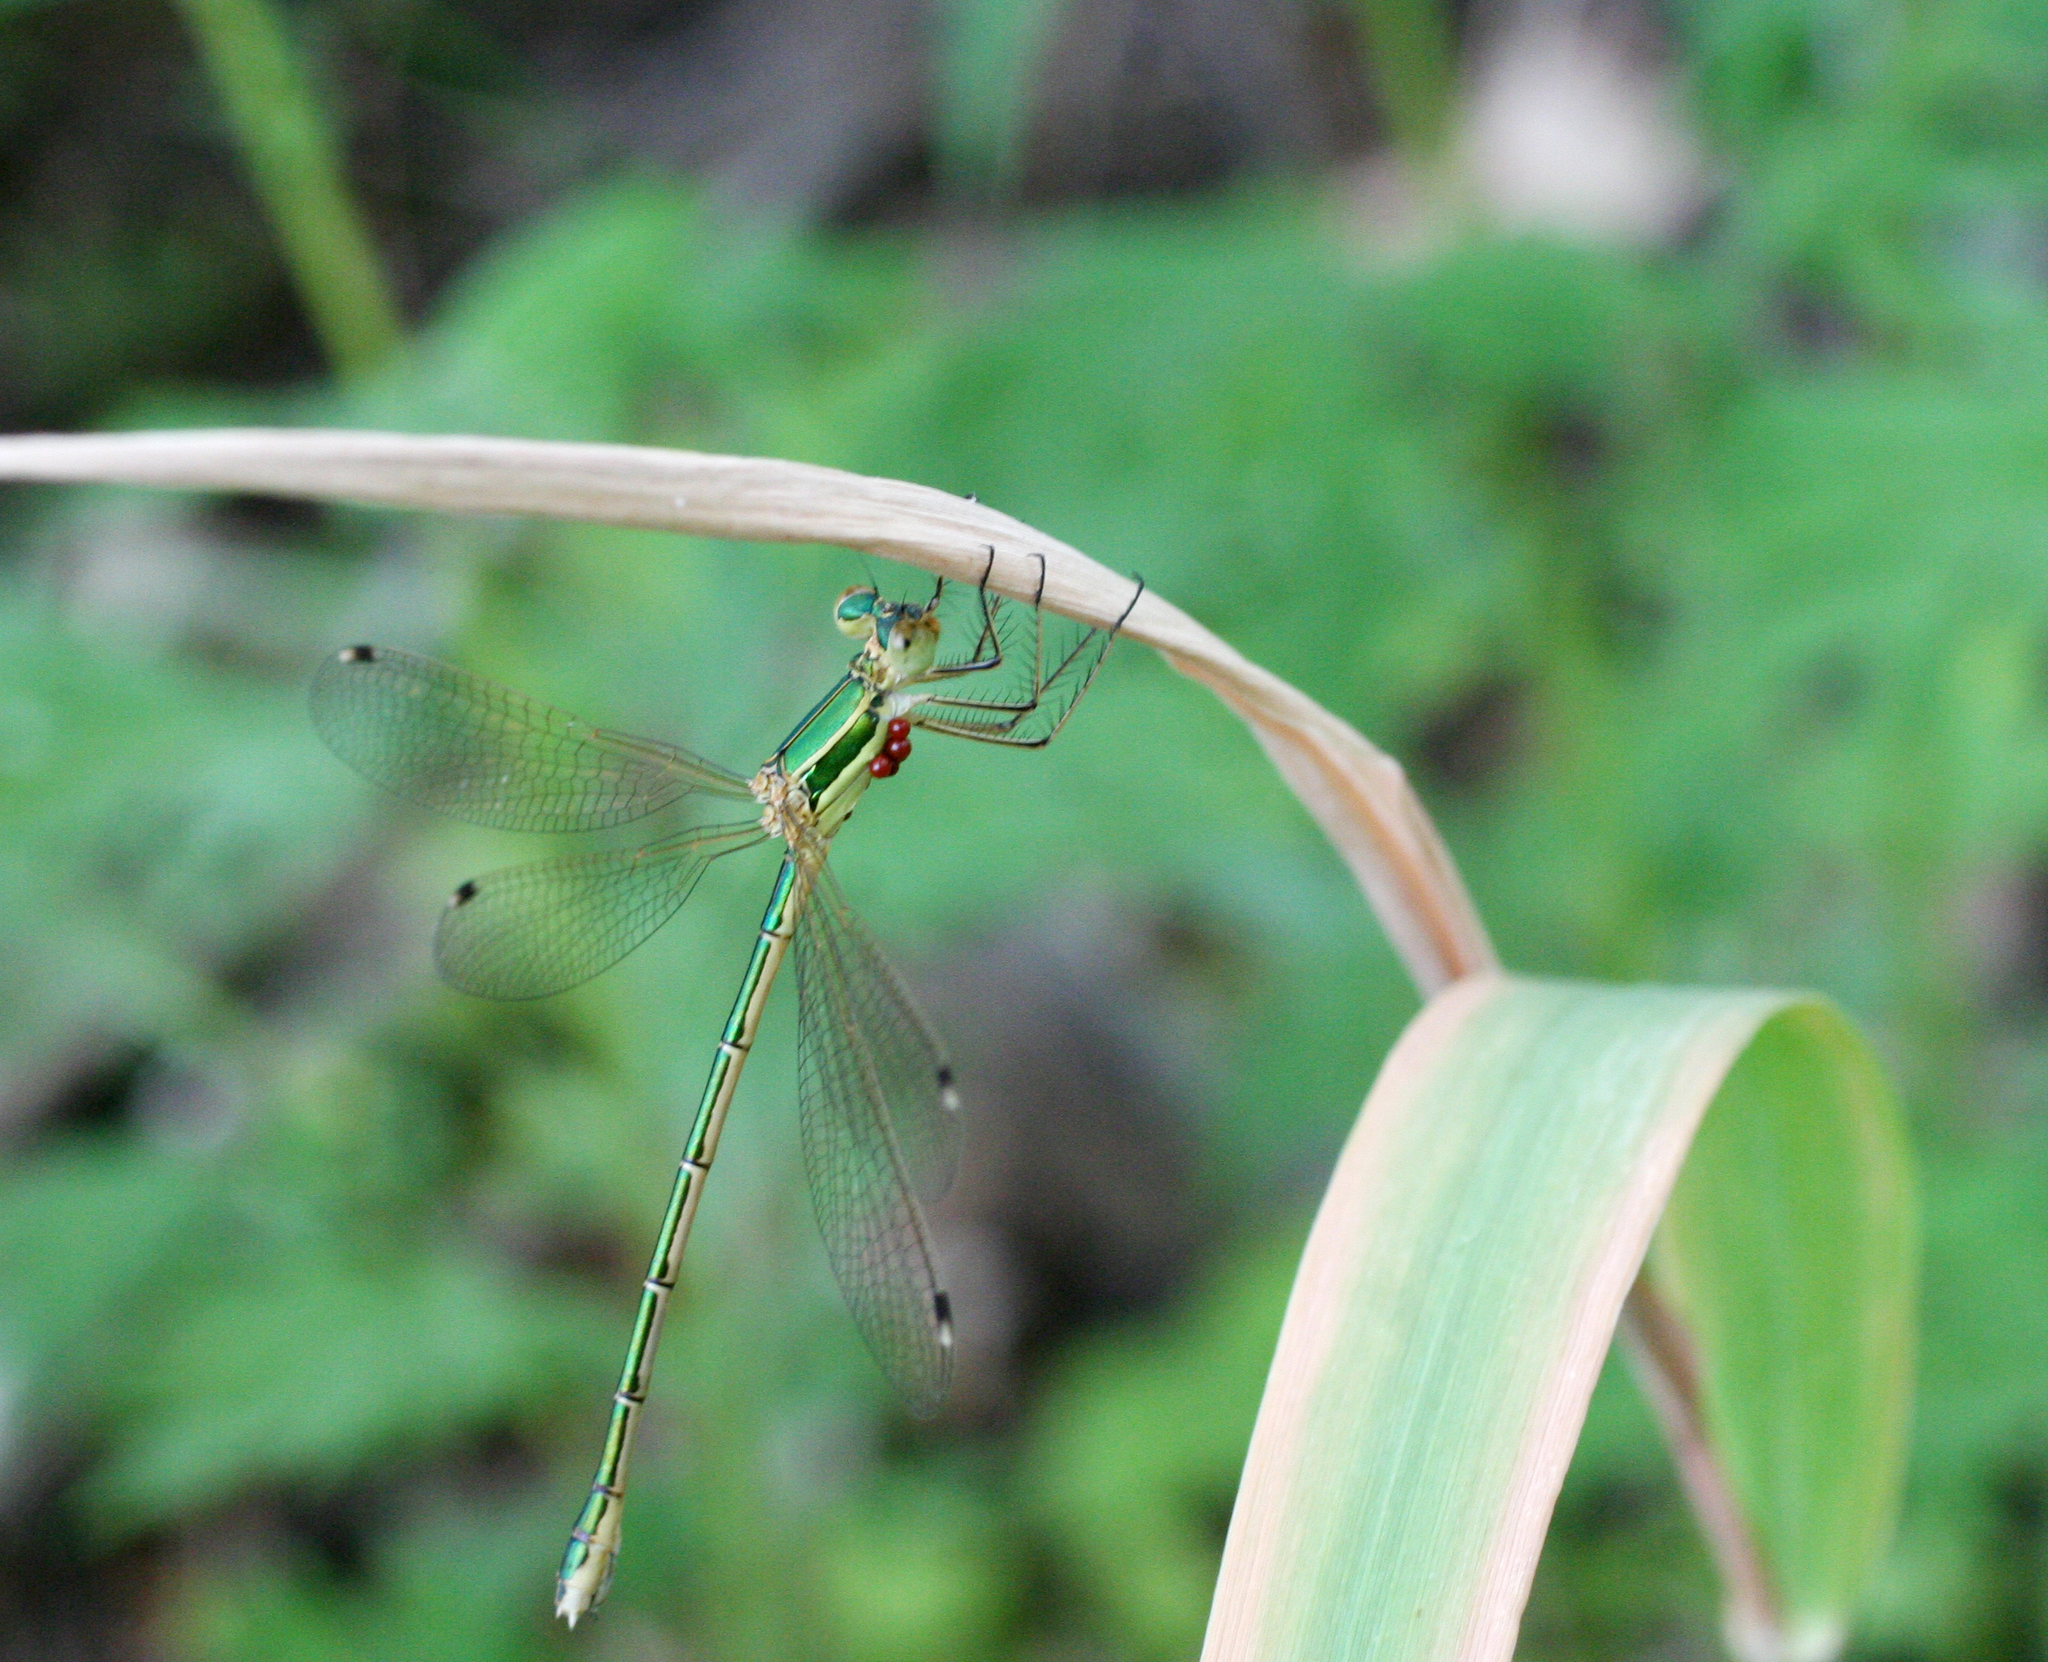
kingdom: Animalia
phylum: Arthropoda
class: Insecta
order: Odonata
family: Lestidae
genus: Lestes
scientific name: Lestes barbarus
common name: Migrant spreadwing
